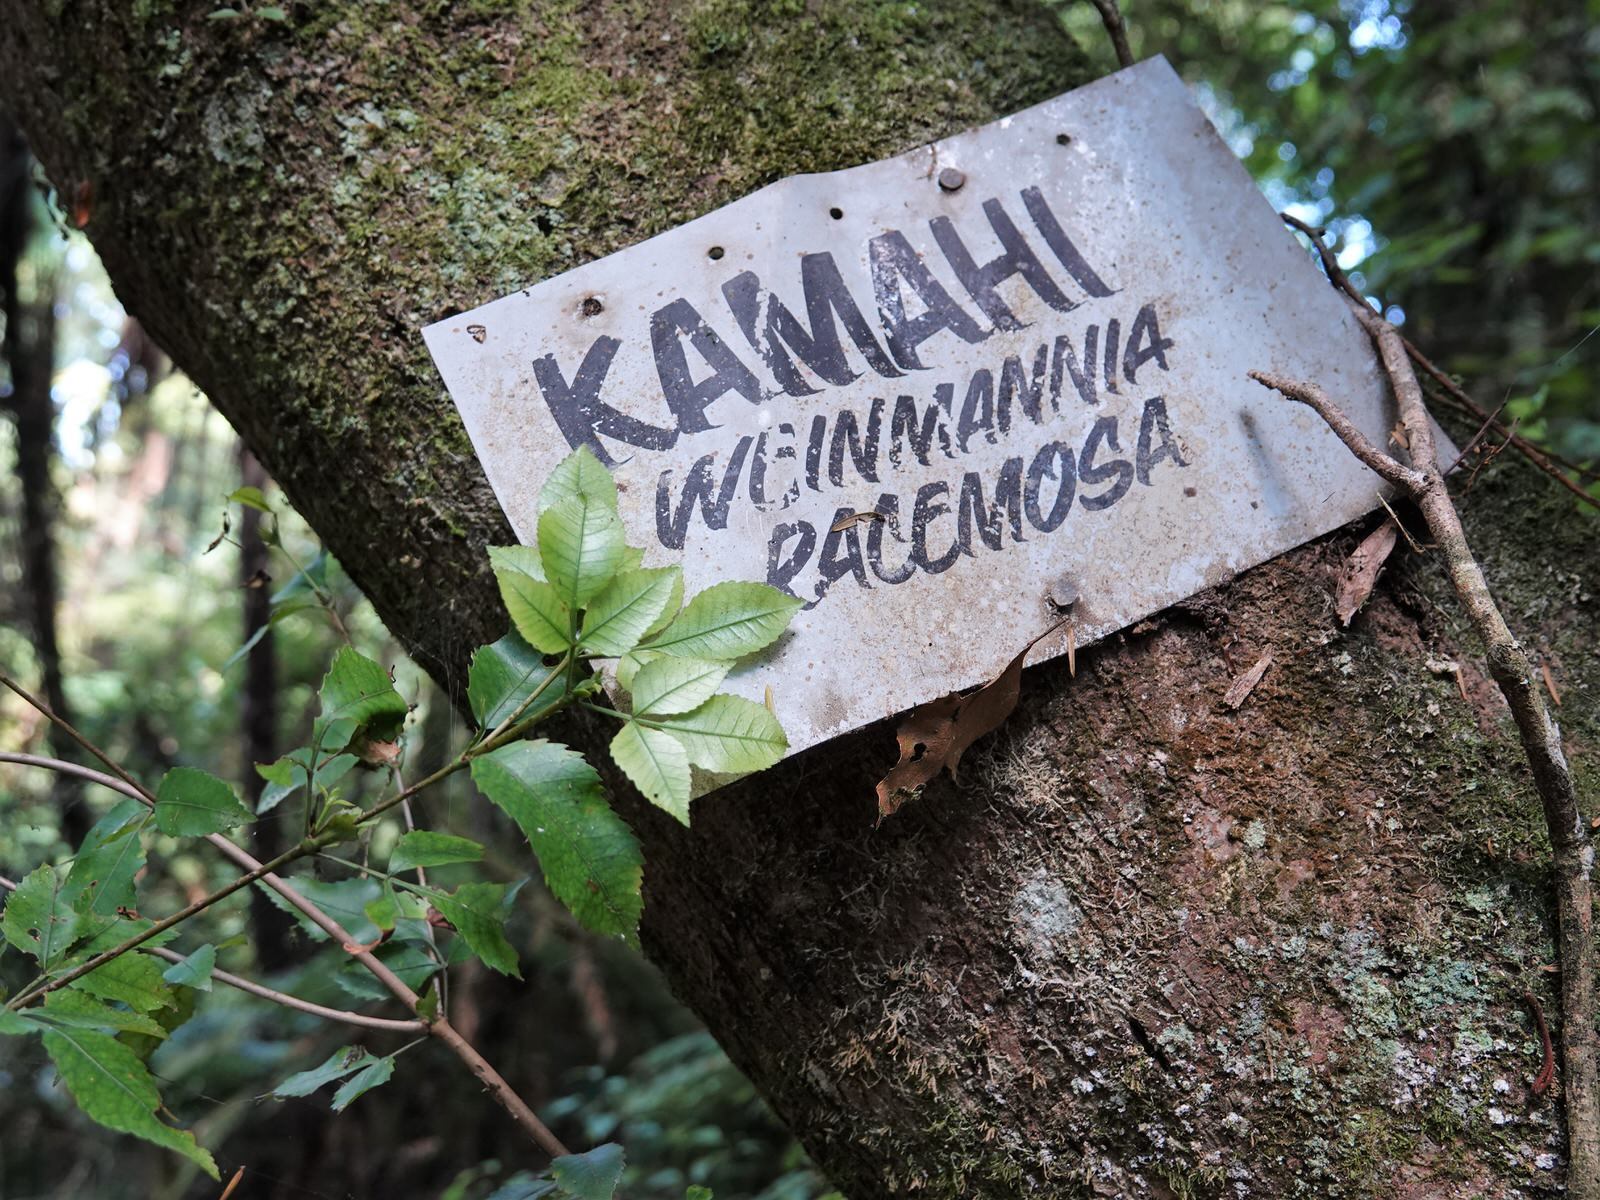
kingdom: Plantae
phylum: Tracheophyta
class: Magnoliopsida
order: Oxalidales
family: Cunoniaceae
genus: Pterophylla
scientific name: Pterophylla racemosa
